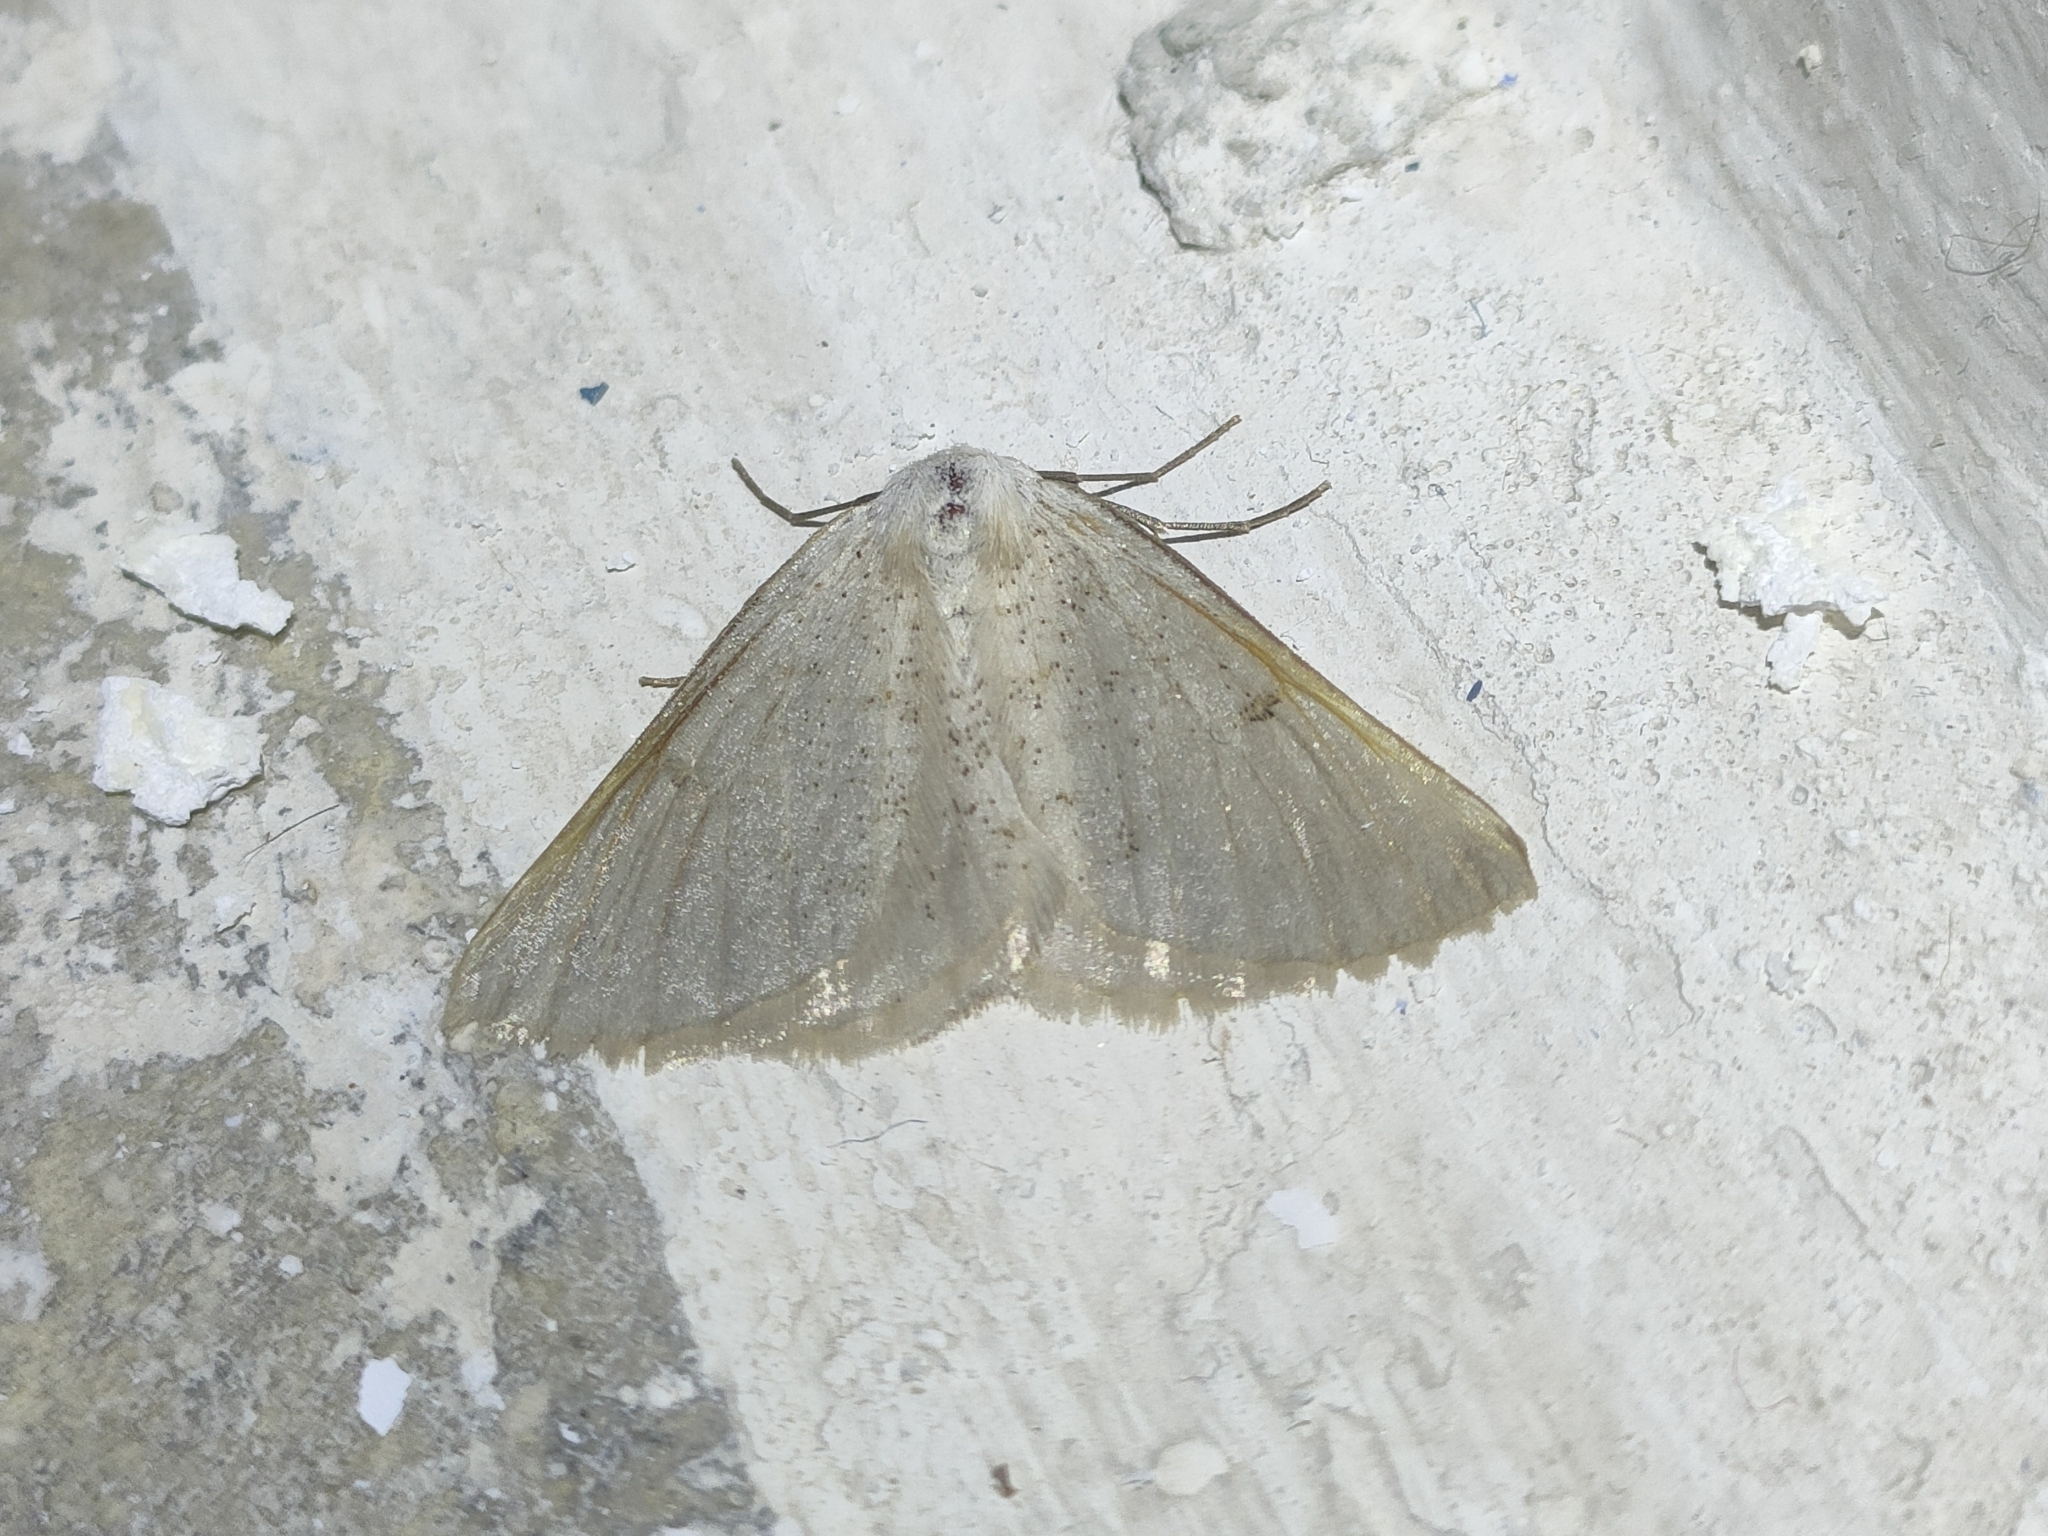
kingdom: Animalia
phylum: Arthropoda
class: Insecta
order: Lepidoptera
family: Geometridae
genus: Dyscia
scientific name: Dyscia penulataria
